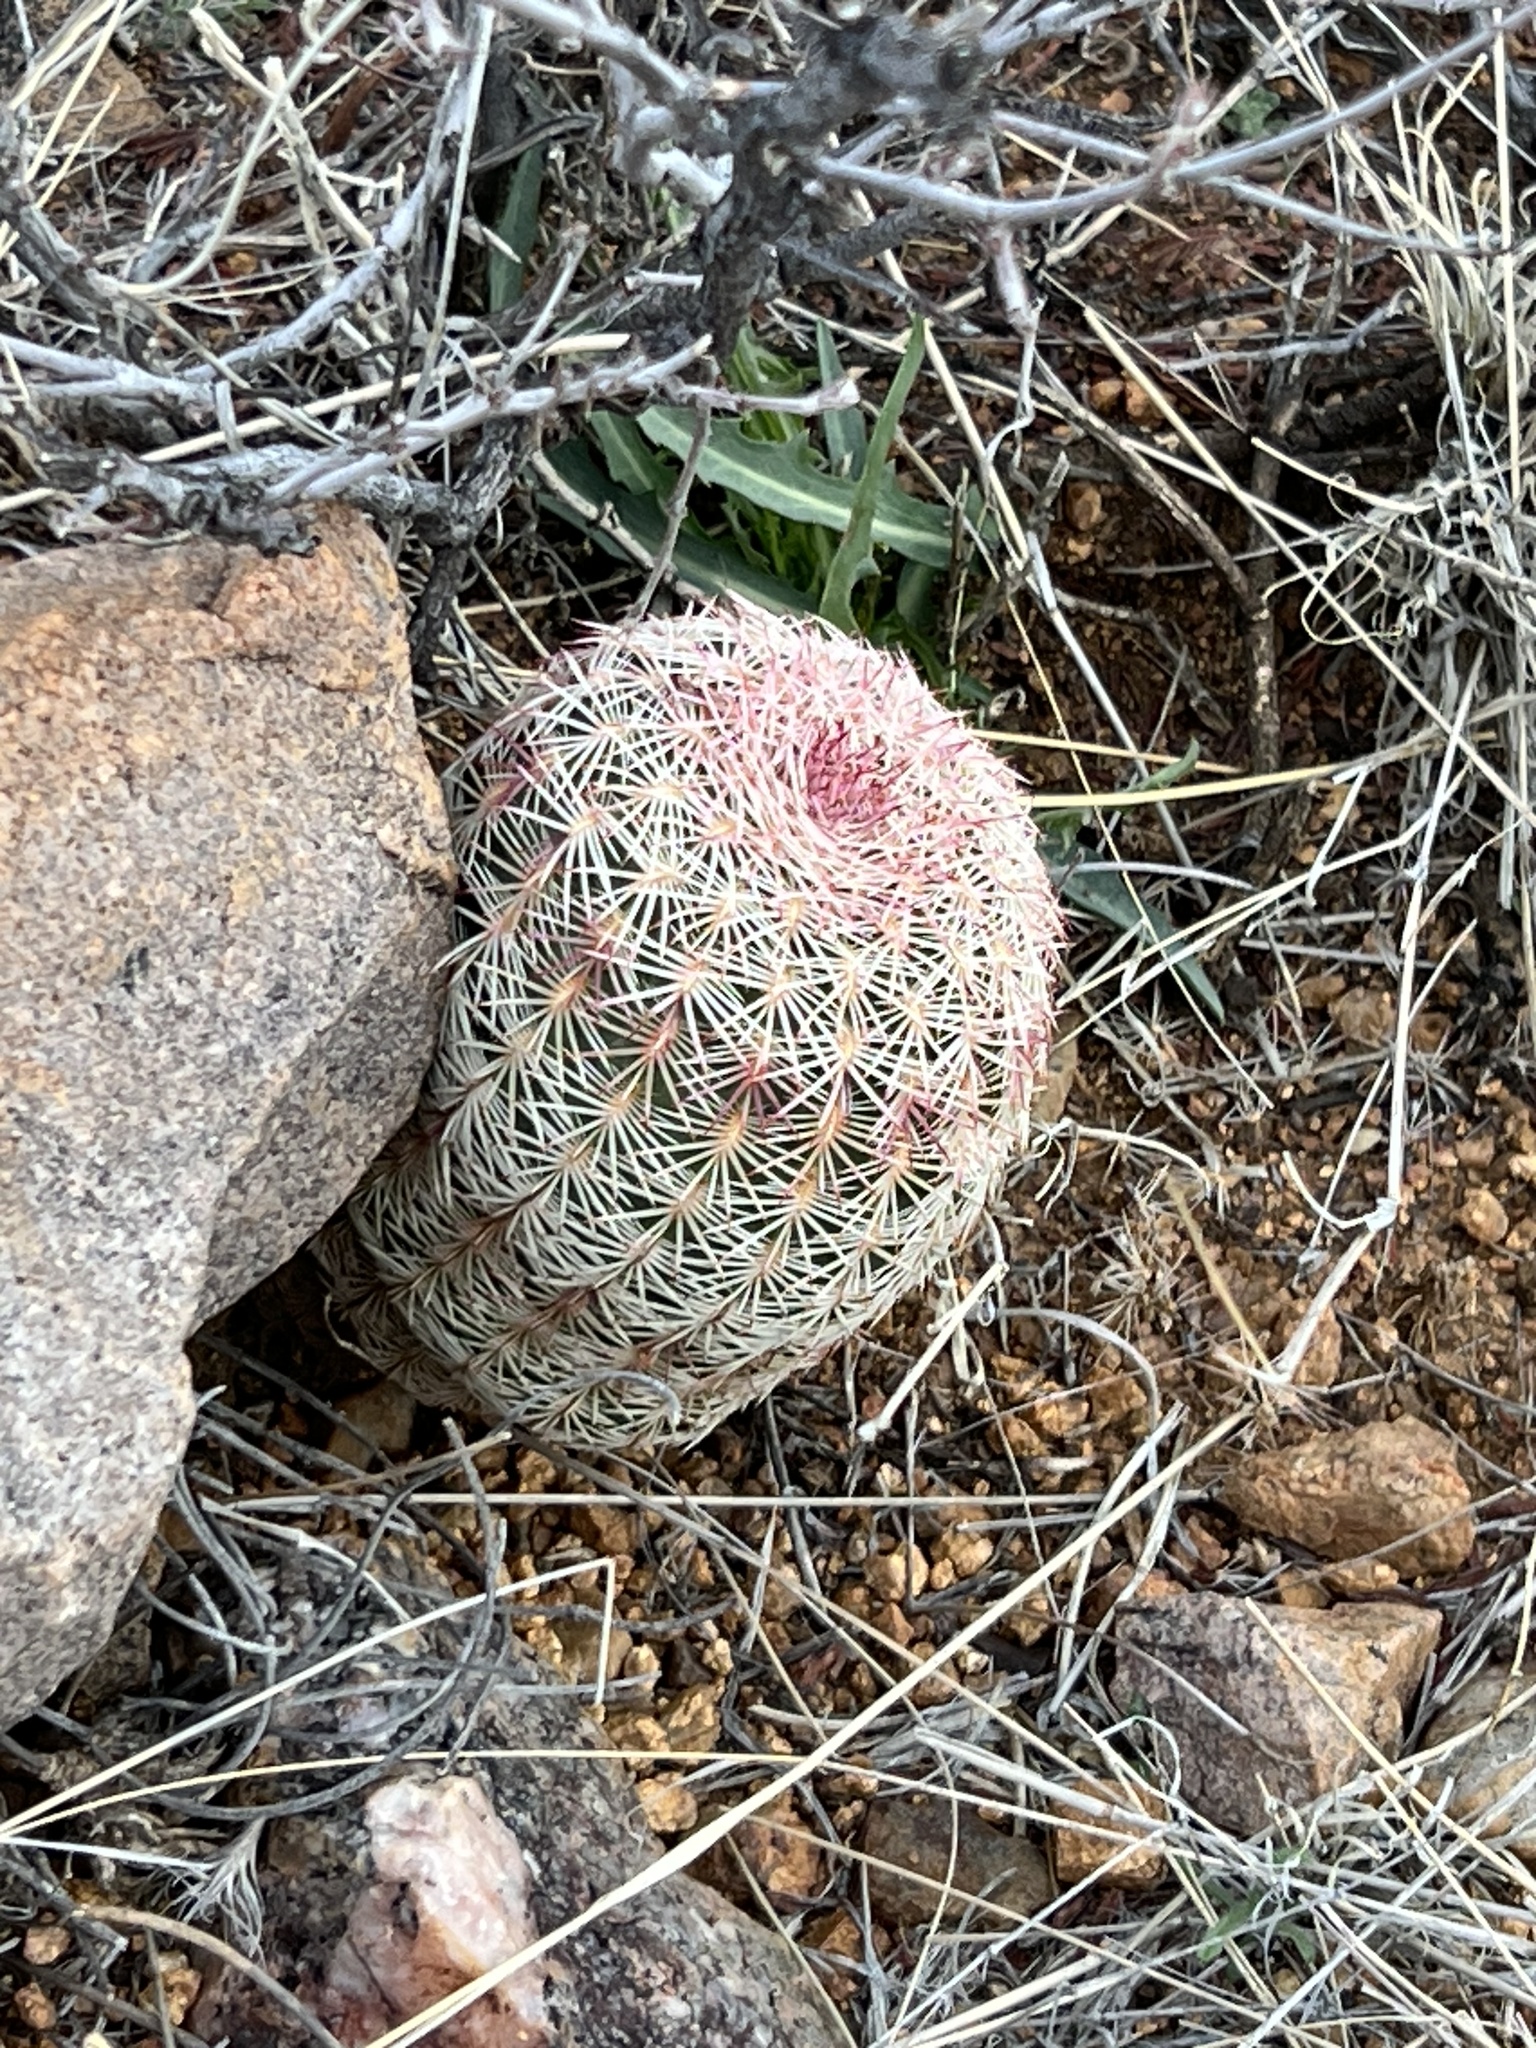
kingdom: Plantae
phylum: Tracheophyta
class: Magnoliopsida
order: Caryophyllales
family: Cactaceae
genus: Echinocereus
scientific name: Echinocereus rigidissimus
